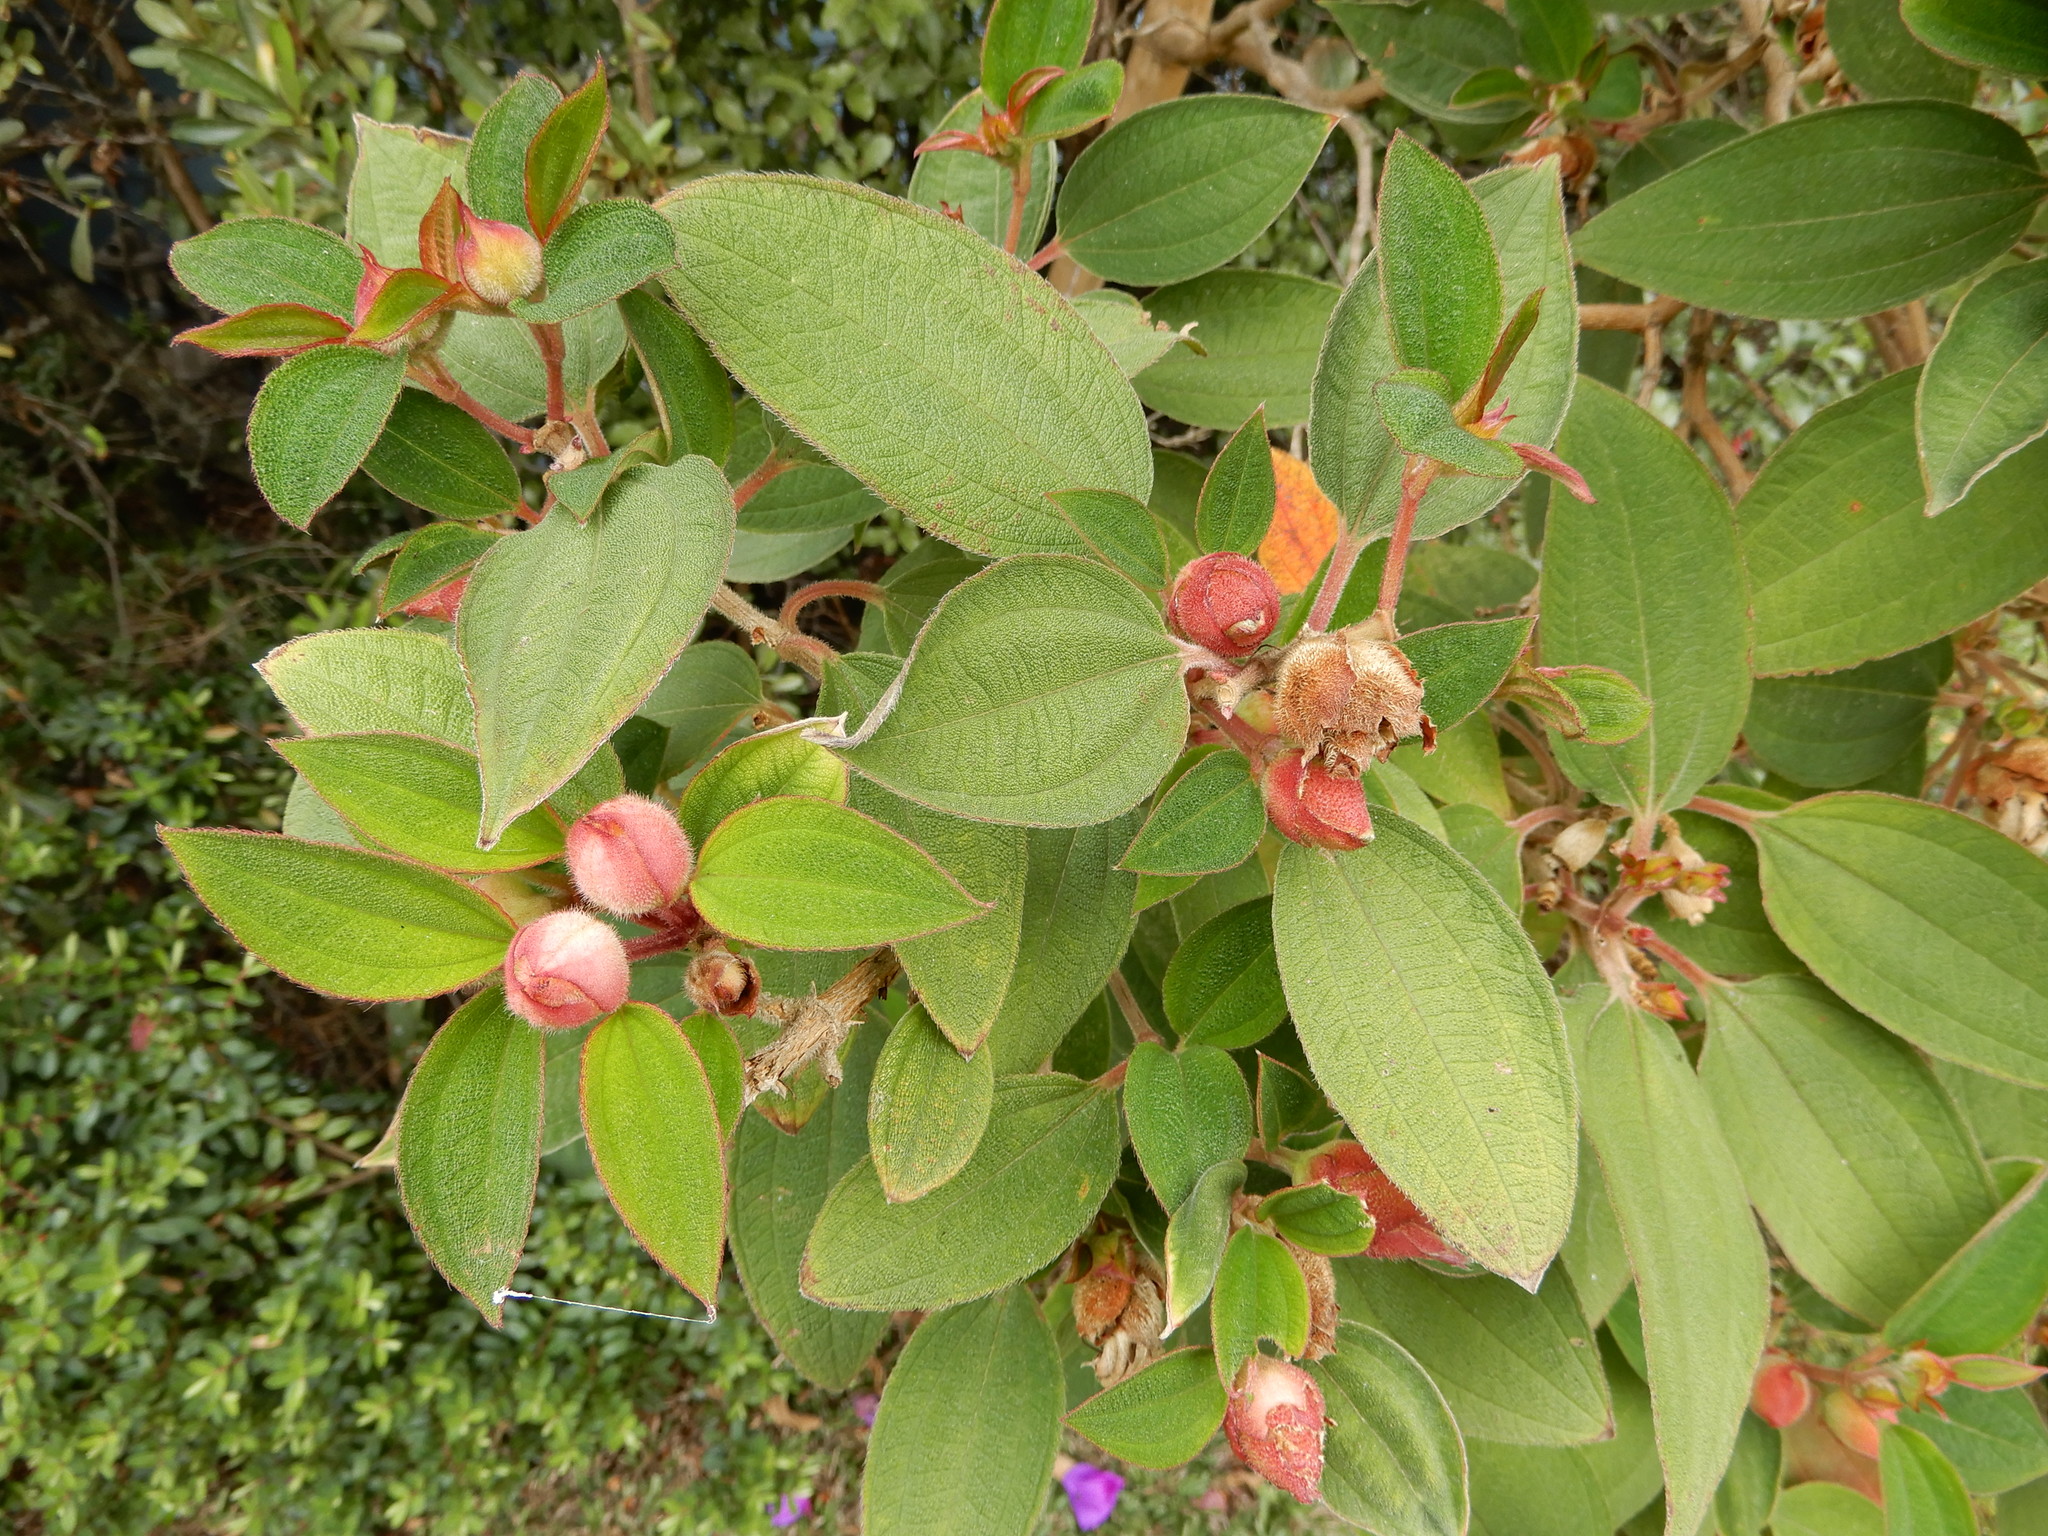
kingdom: Plantae
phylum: Tracheophyta
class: Magnoliopsida
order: Myrtales
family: Melastomataceae
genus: Pleroma
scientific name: Pleroma urvilleanum
